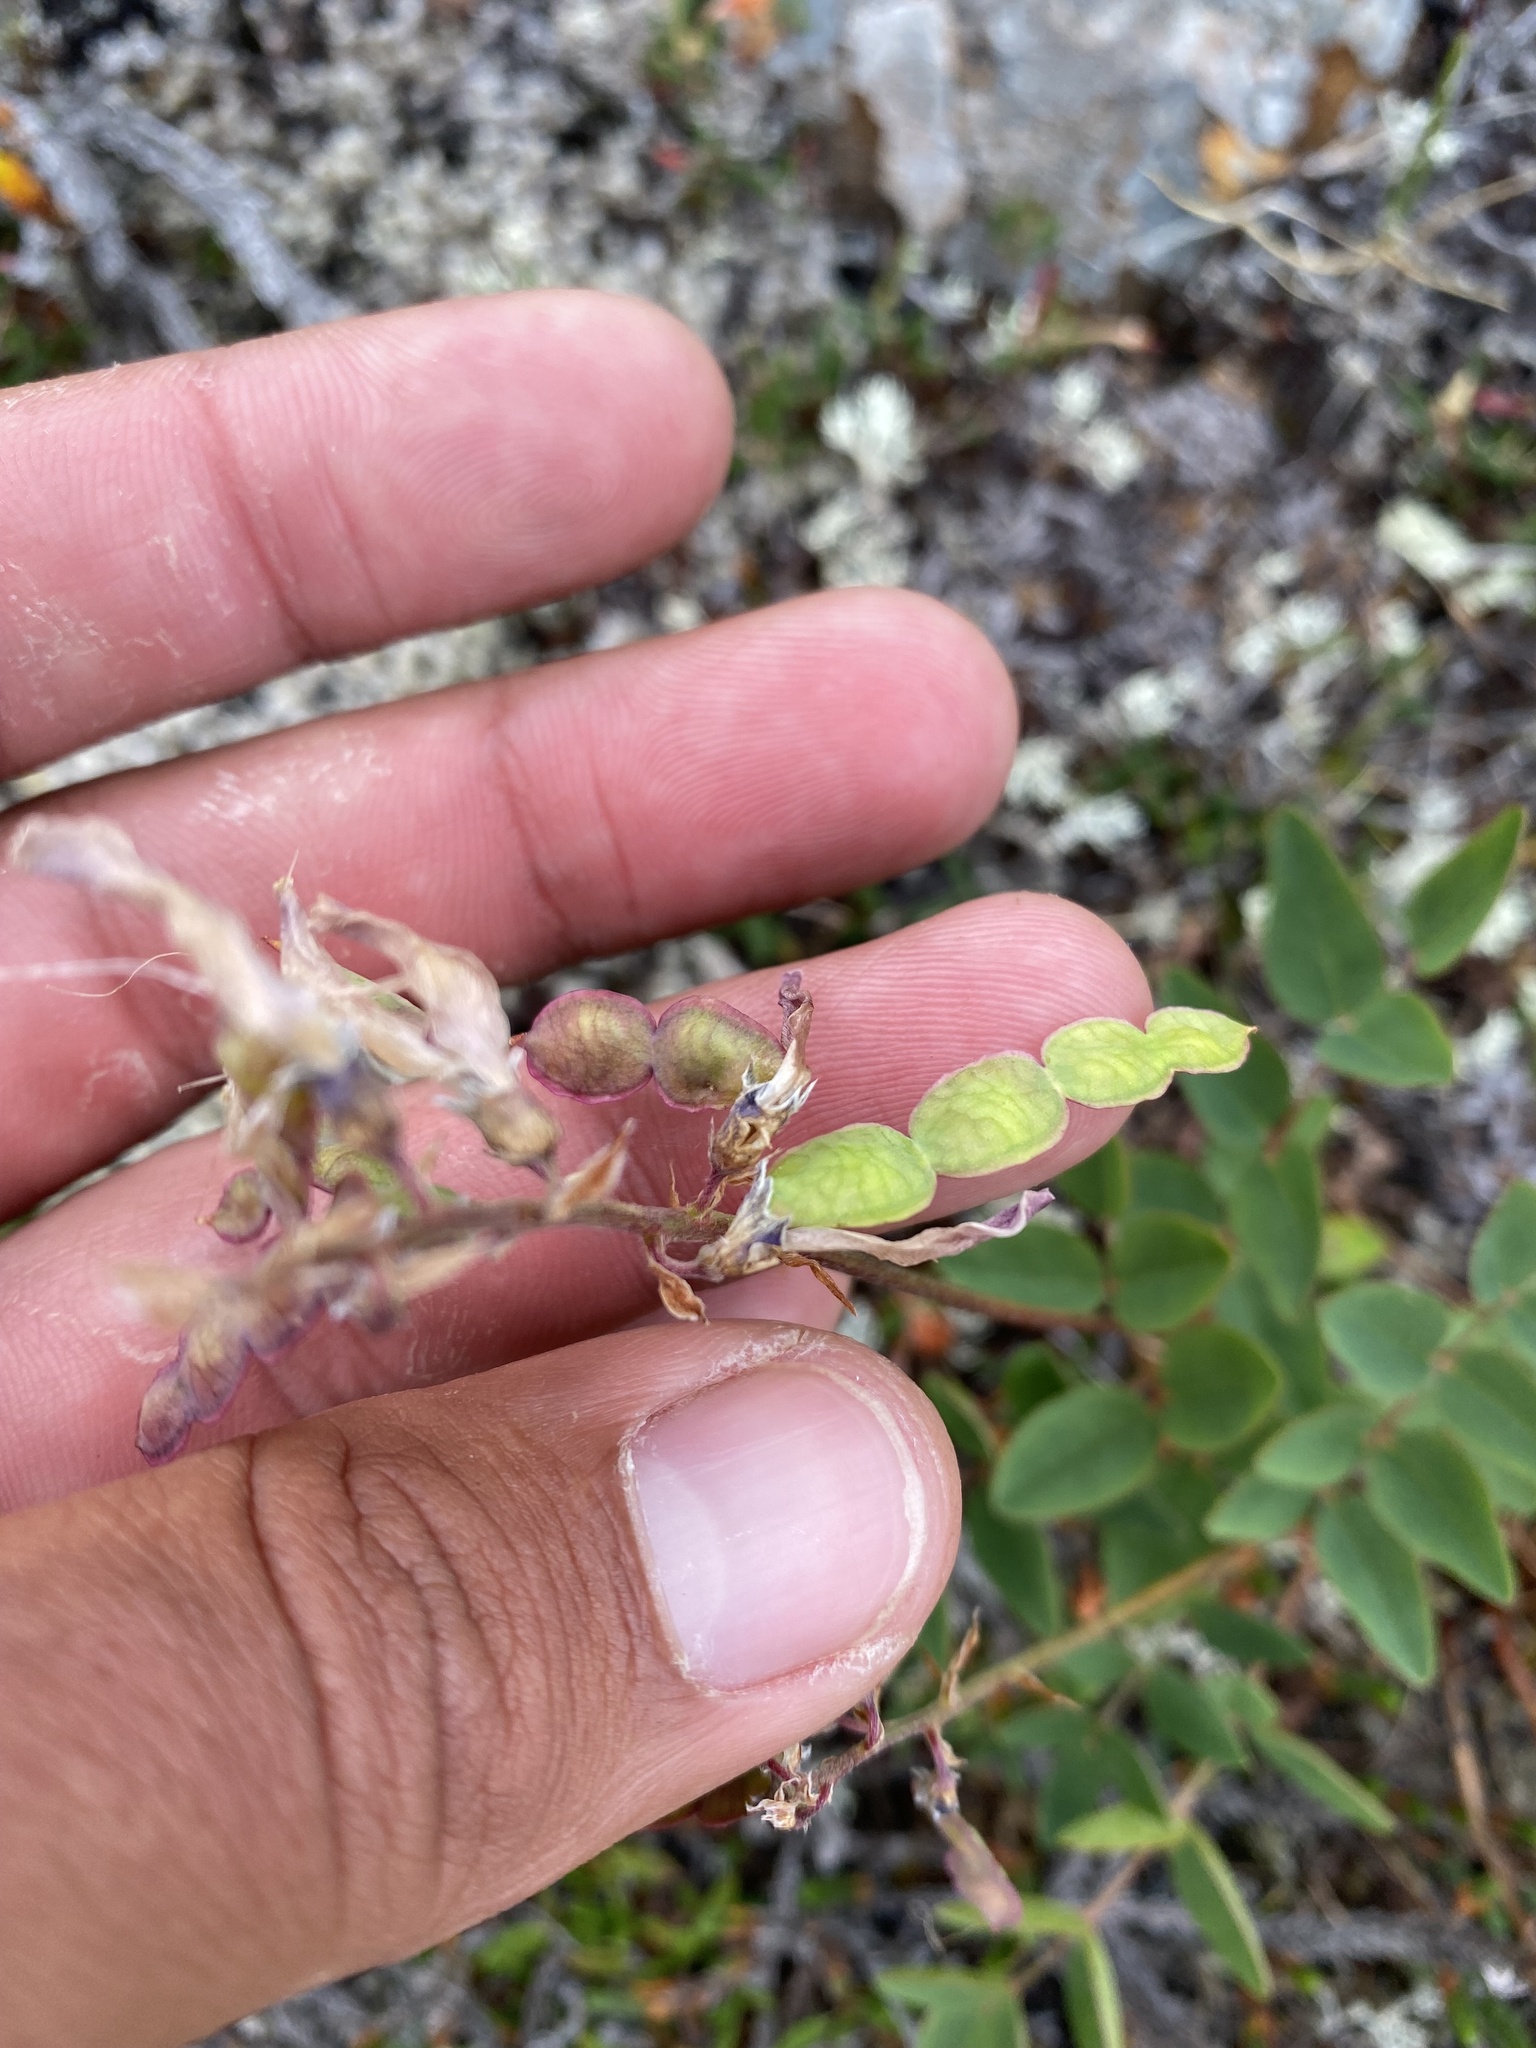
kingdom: Plantae
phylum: Tracheophyta
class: Magnoliopsida
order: Fabales
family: Fabaceae
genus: Hedysarum
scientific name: Hedysarum hedysaroides
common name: Alpine french-honeysuckle
